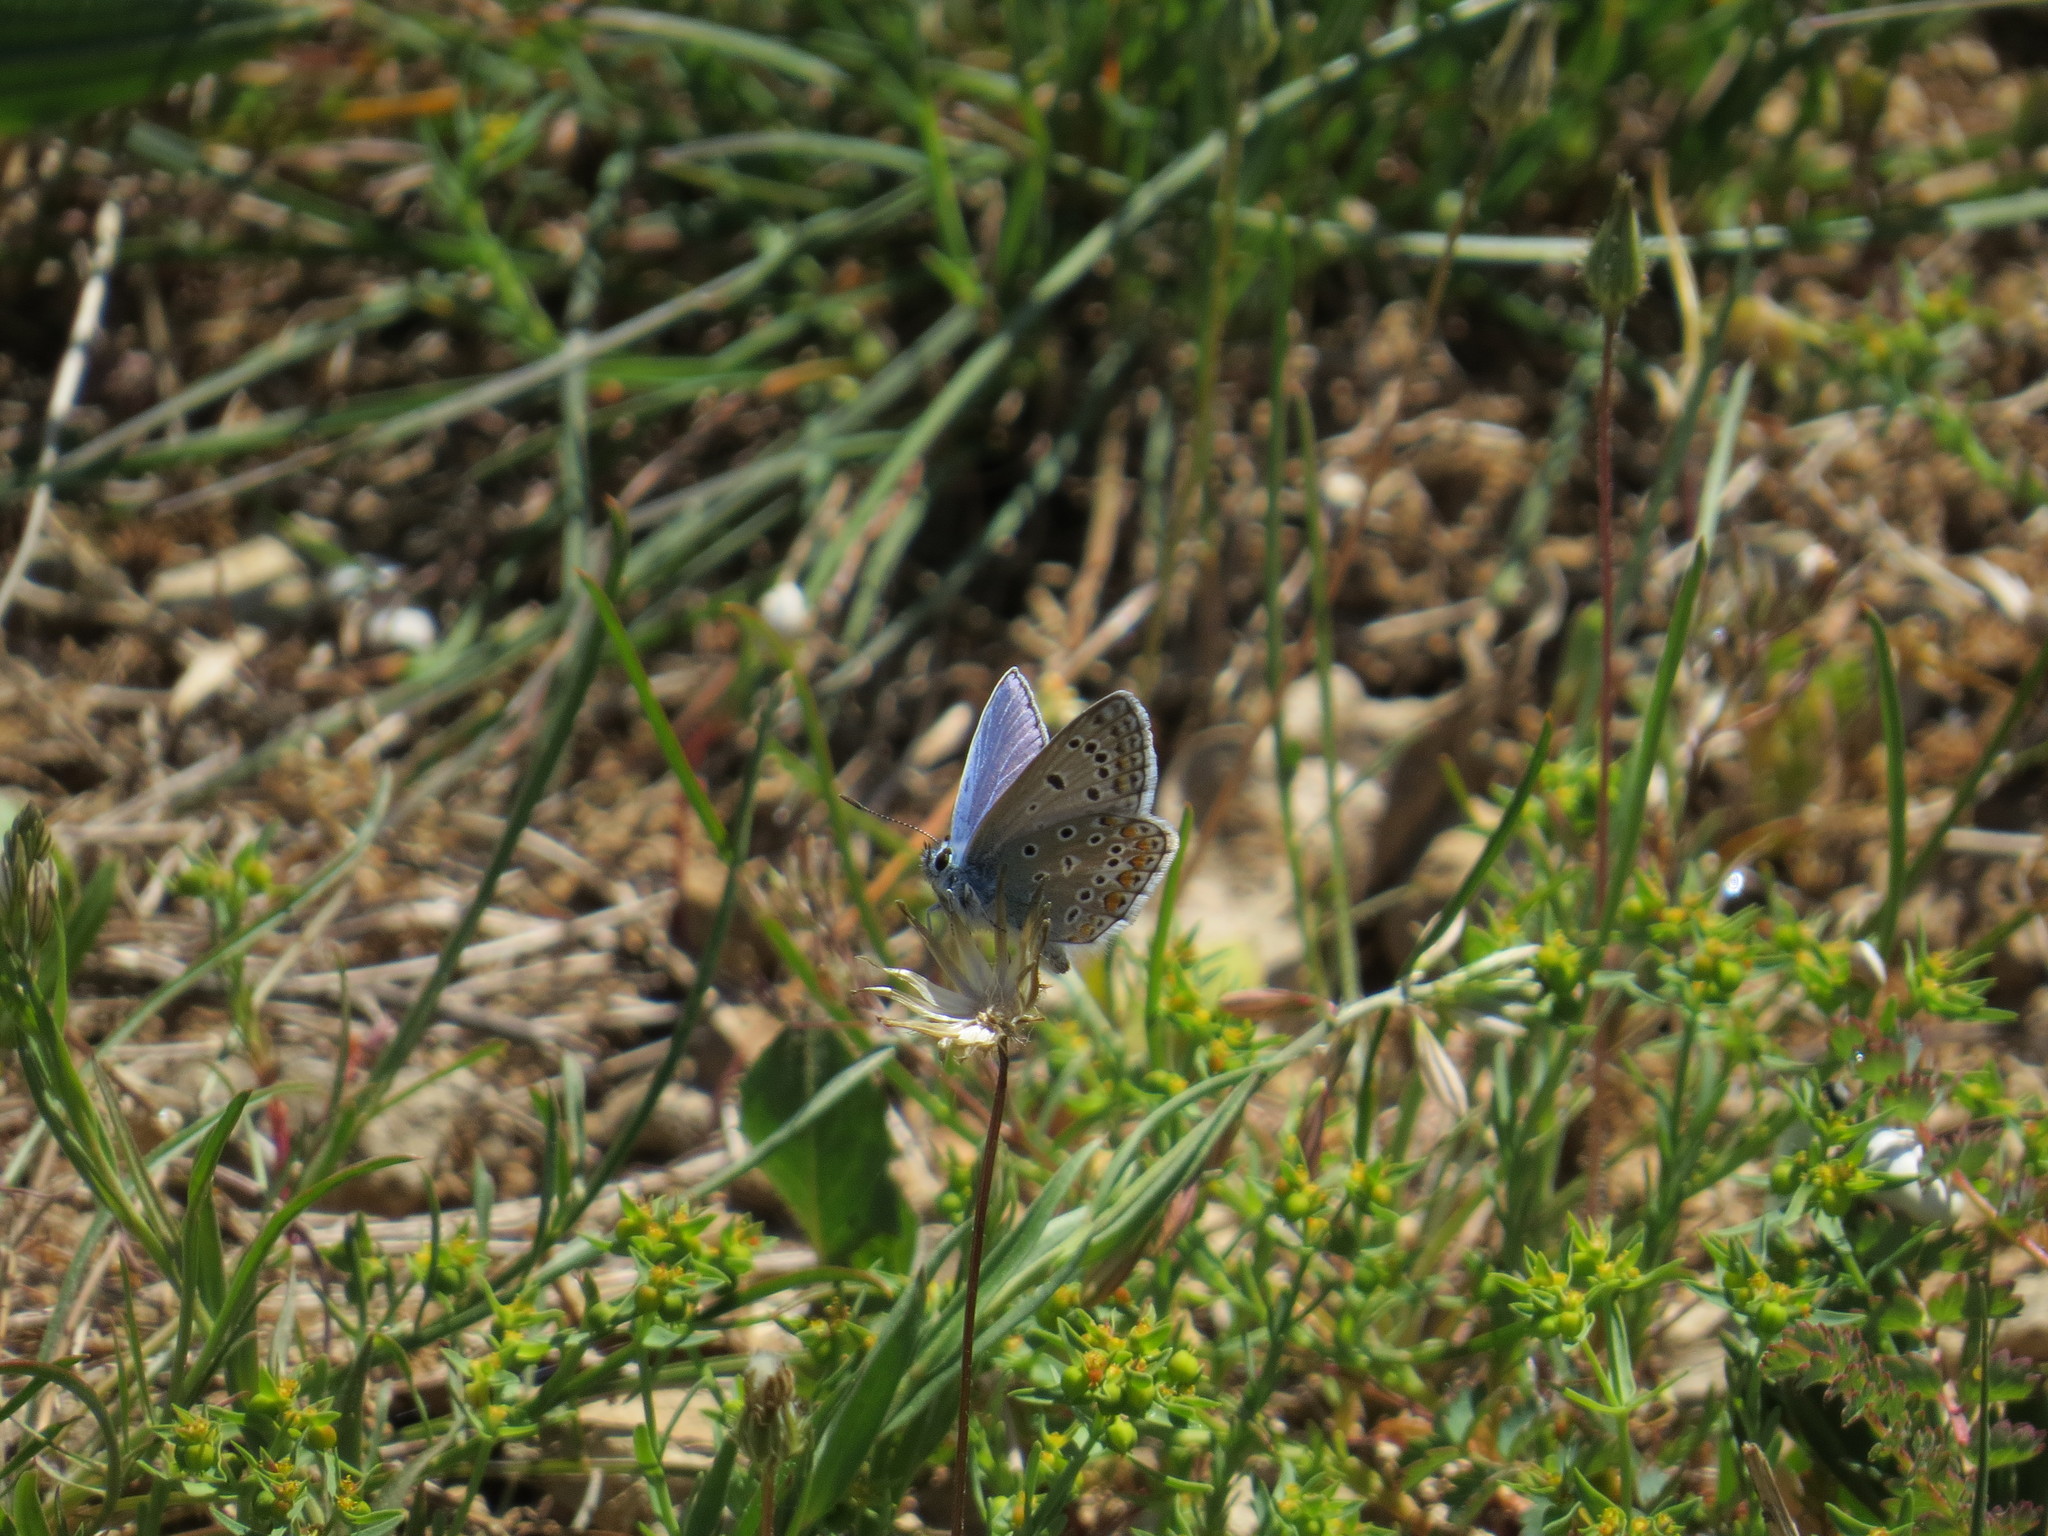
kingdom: Animalia
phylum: Arthropoda
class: Insecta
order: Lepidoptera
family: Lycaenidae
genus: Polyommatus
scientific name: Polyommatus icarus
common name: Common blue
